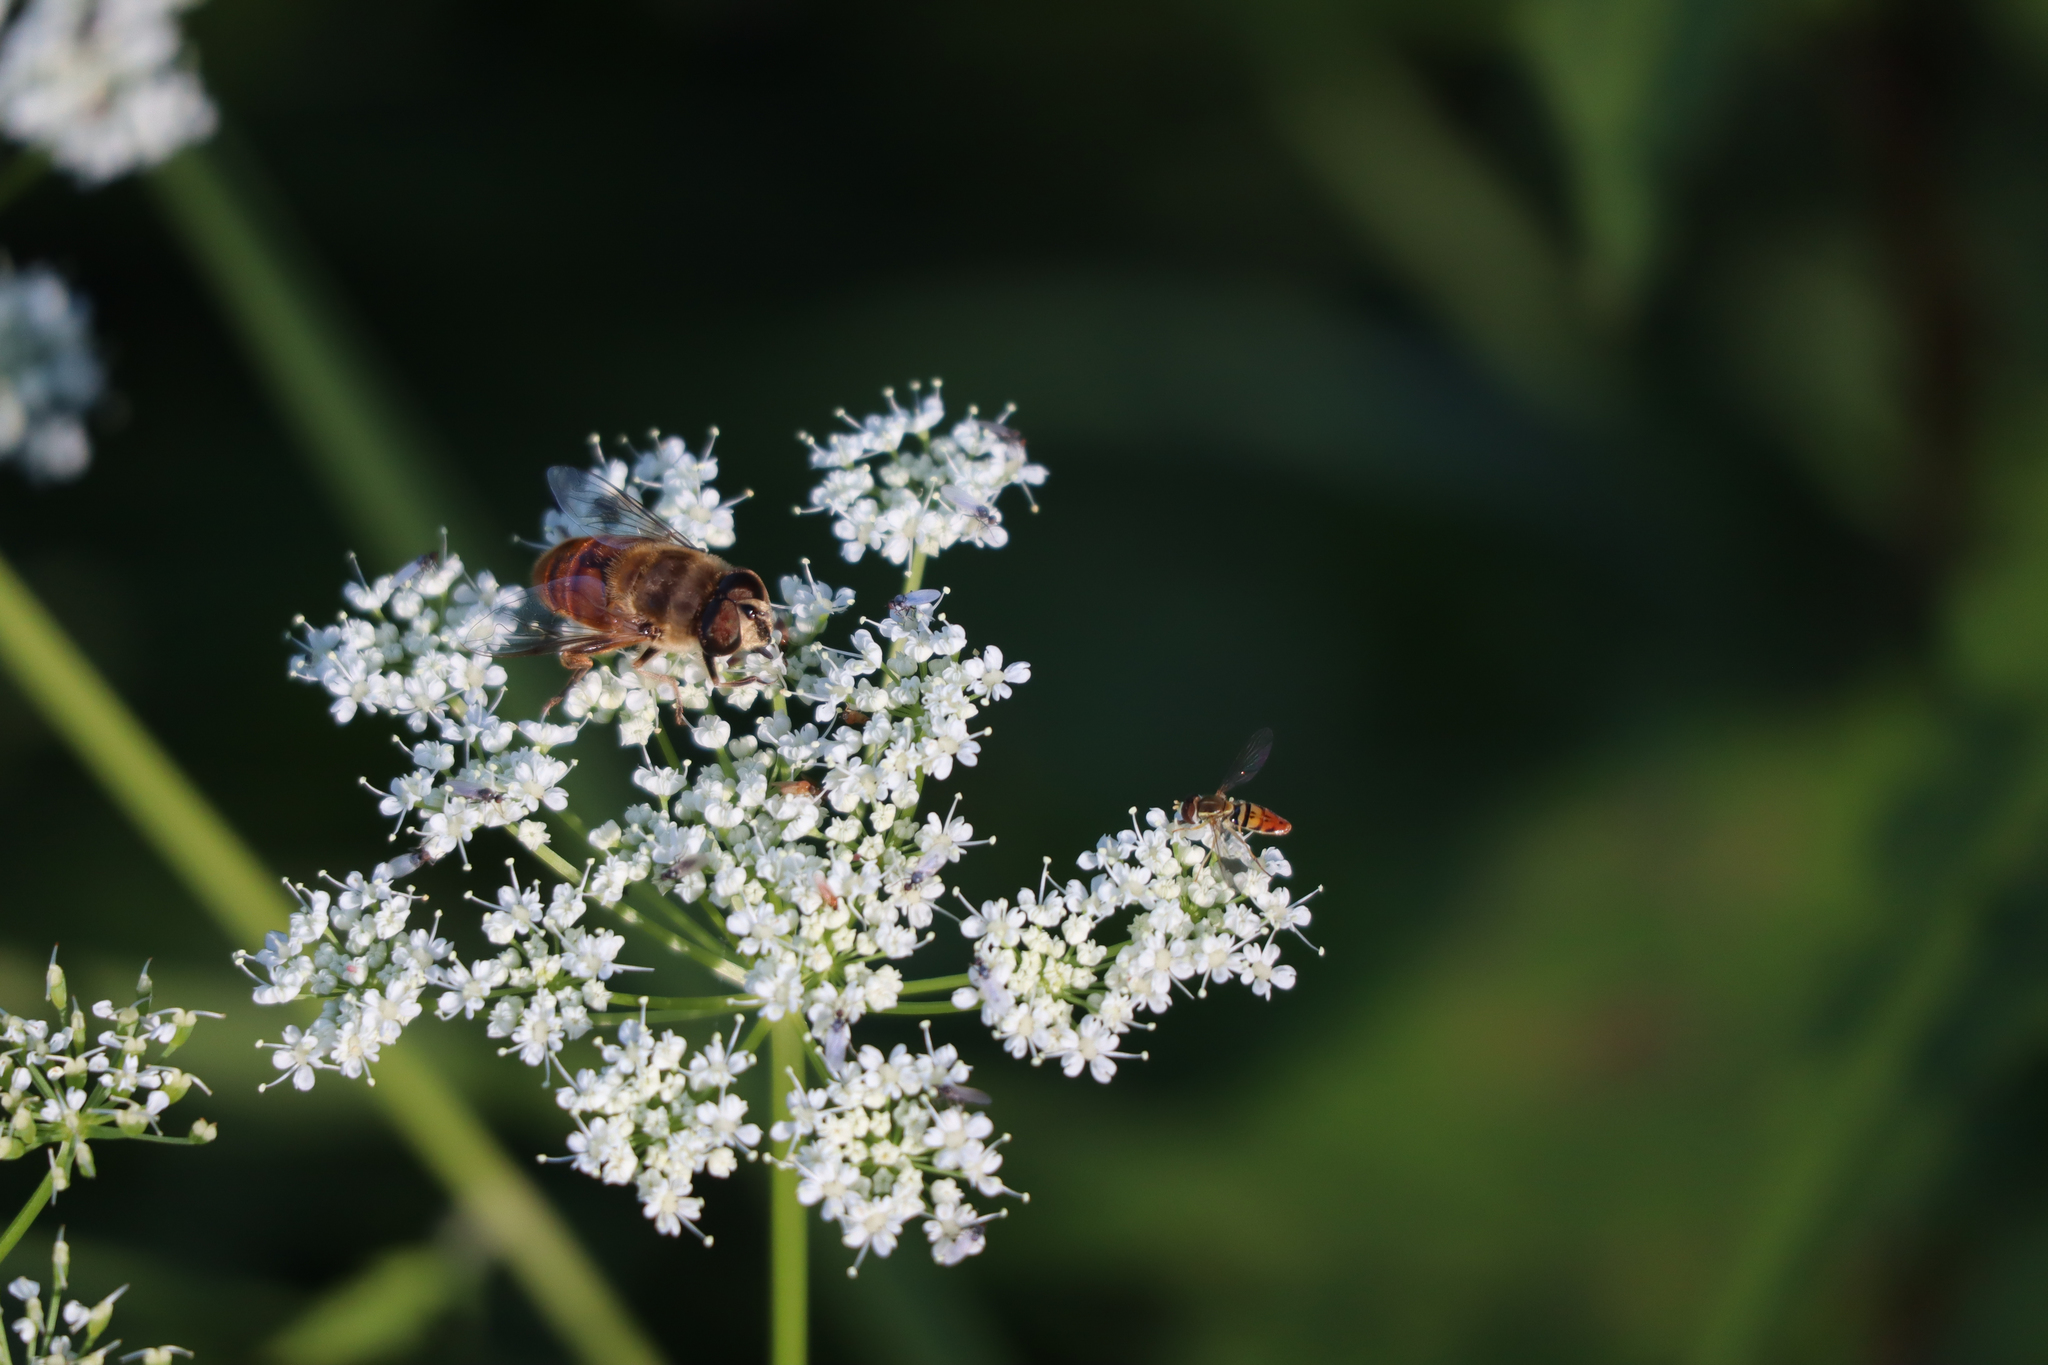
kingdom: Animalia
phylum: Arthropoda
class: Insecta
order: Diptera
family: Syrphidae
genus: Eristalis
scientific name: Eristalis tenax
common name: Drone fly
